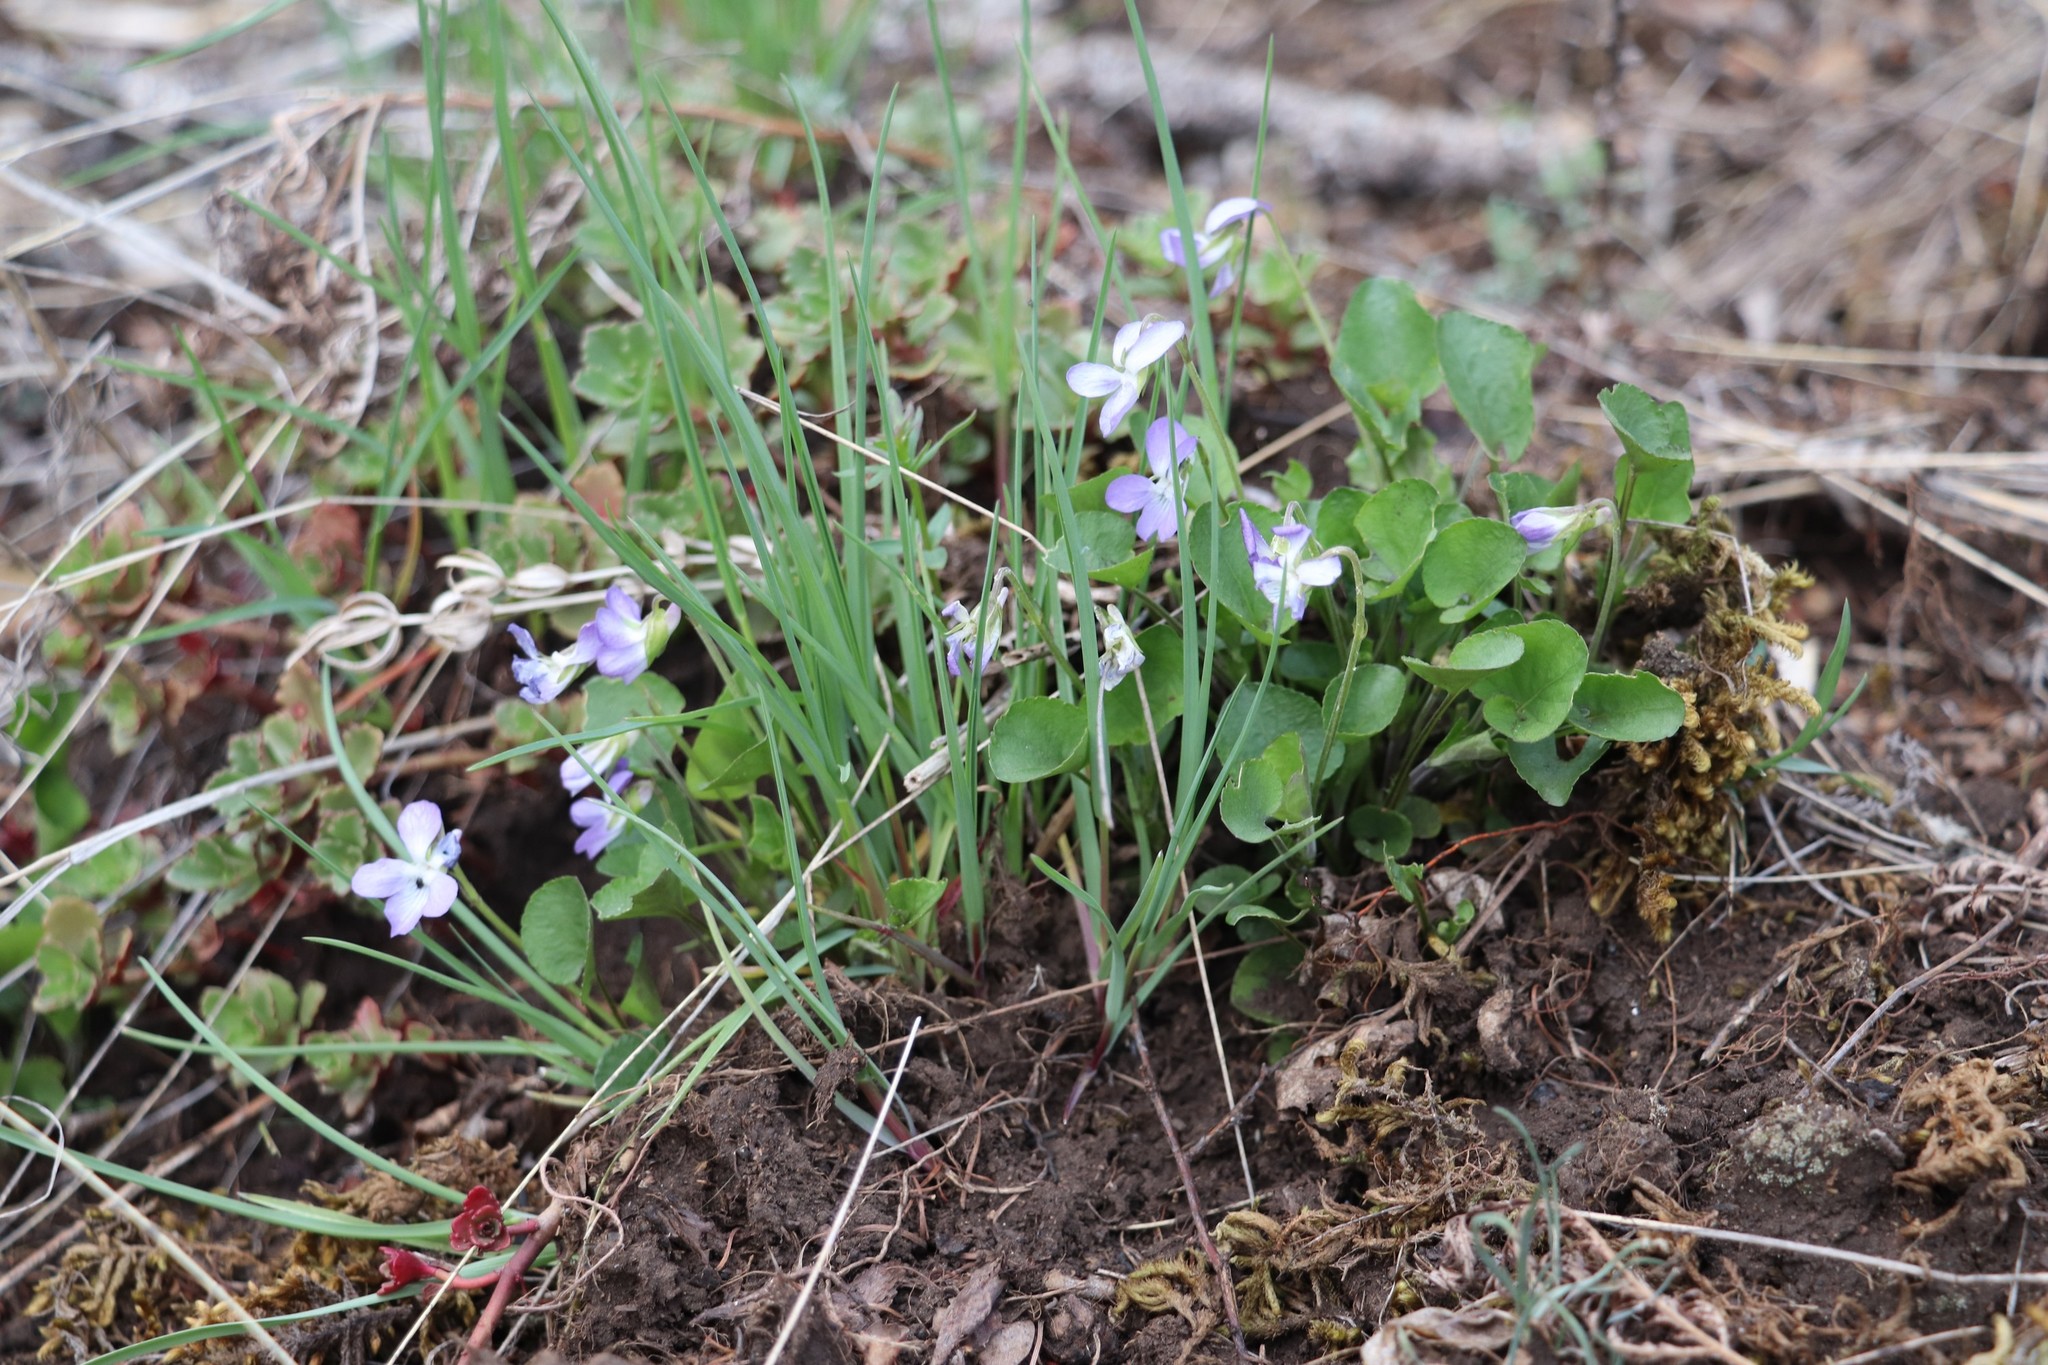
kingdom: Plantae
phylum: Tracheophyta
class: Magnoliopsida
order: Malpighiales
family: Violaceae
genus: Viola
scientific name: Viola rupestris
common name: Teesdale violet
